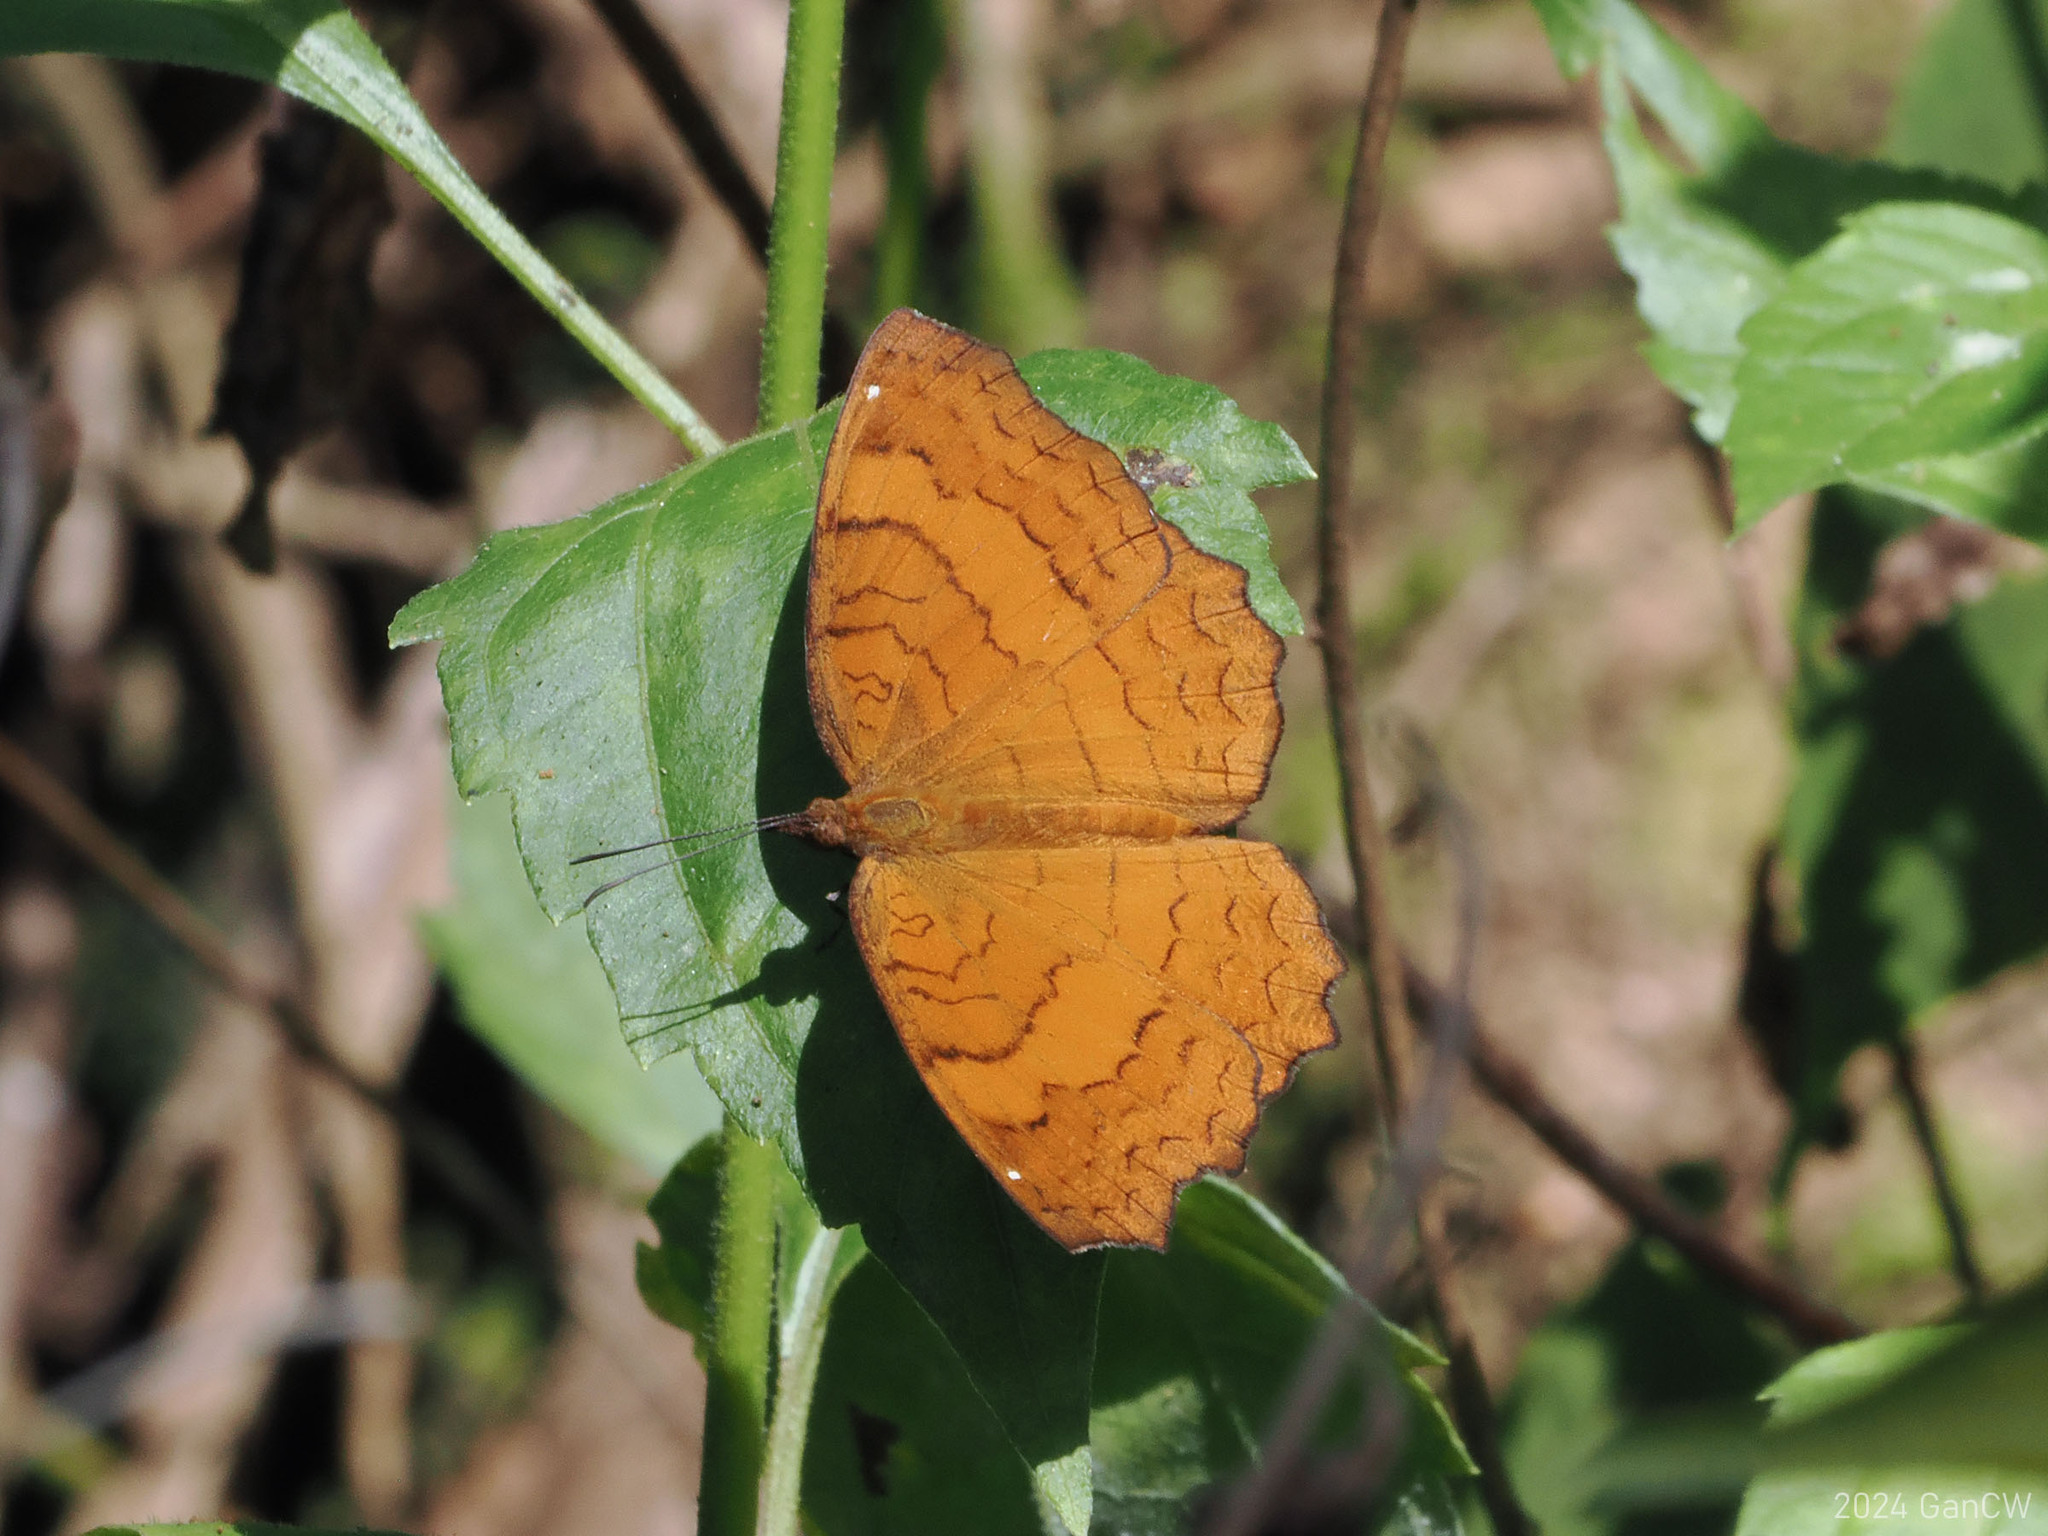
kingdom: Animalia
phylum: Arthropoda
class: Insecta
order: Lepidoptera
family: Nymphalidae
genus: Ariadne
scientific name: Ariadne ariadne
